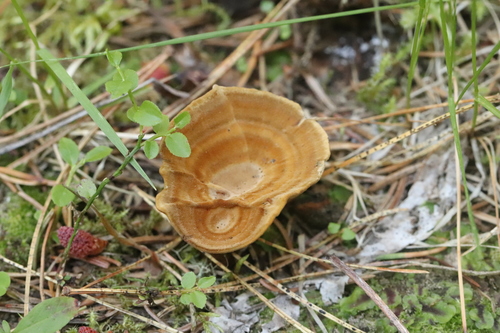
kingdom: Fungi
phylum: Basidiomycota
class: Agaricomycetes
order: Hymenochaetales
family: Hymenochaetaceae
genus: Coltricia
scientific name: Coltricia perennis
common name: Tiger's eye
